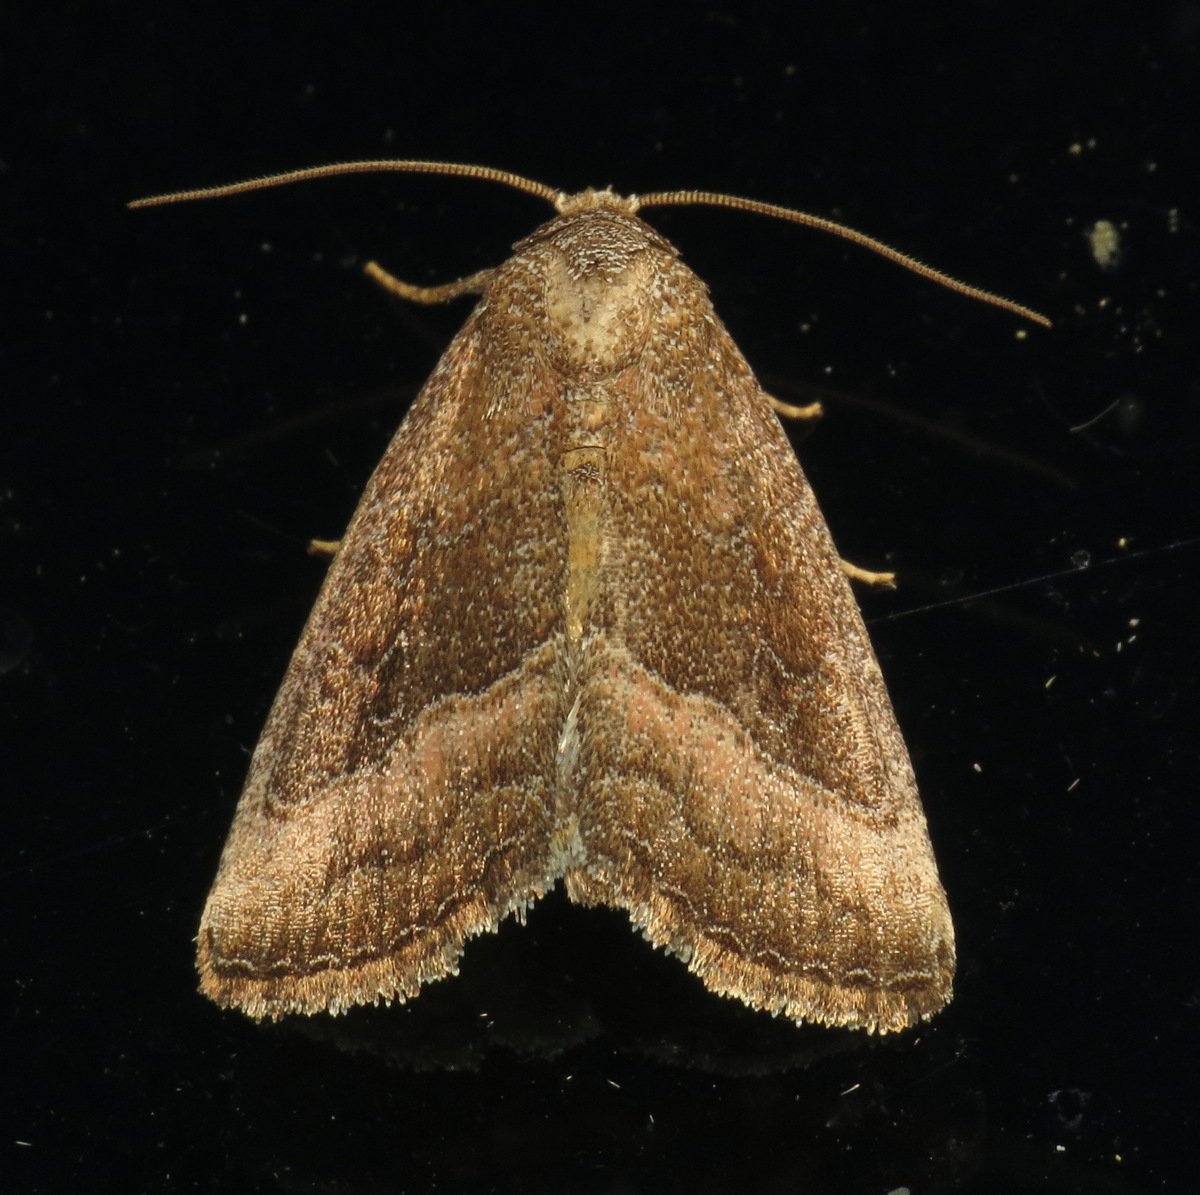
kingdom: Animalia
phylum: Arthropoda
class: Insecta
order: Lepidoptera
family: Noctuidae
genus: Ogdoconta
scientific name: Ogdoconta cinereola
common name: Common pinkband
